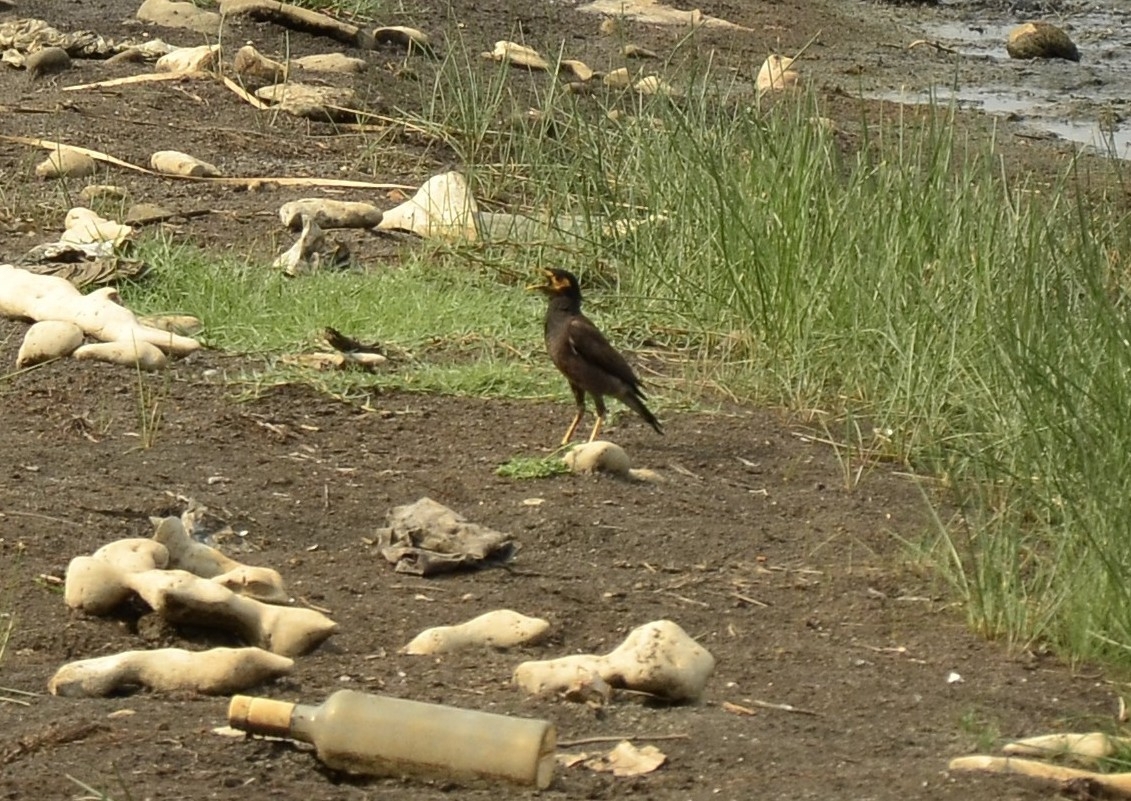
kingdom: Animalia
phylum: Chordata
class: Aves
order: Passeriformes
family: Sturnidae
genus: Acridotheres
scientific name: Acridotheres tristis
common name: Common myna
